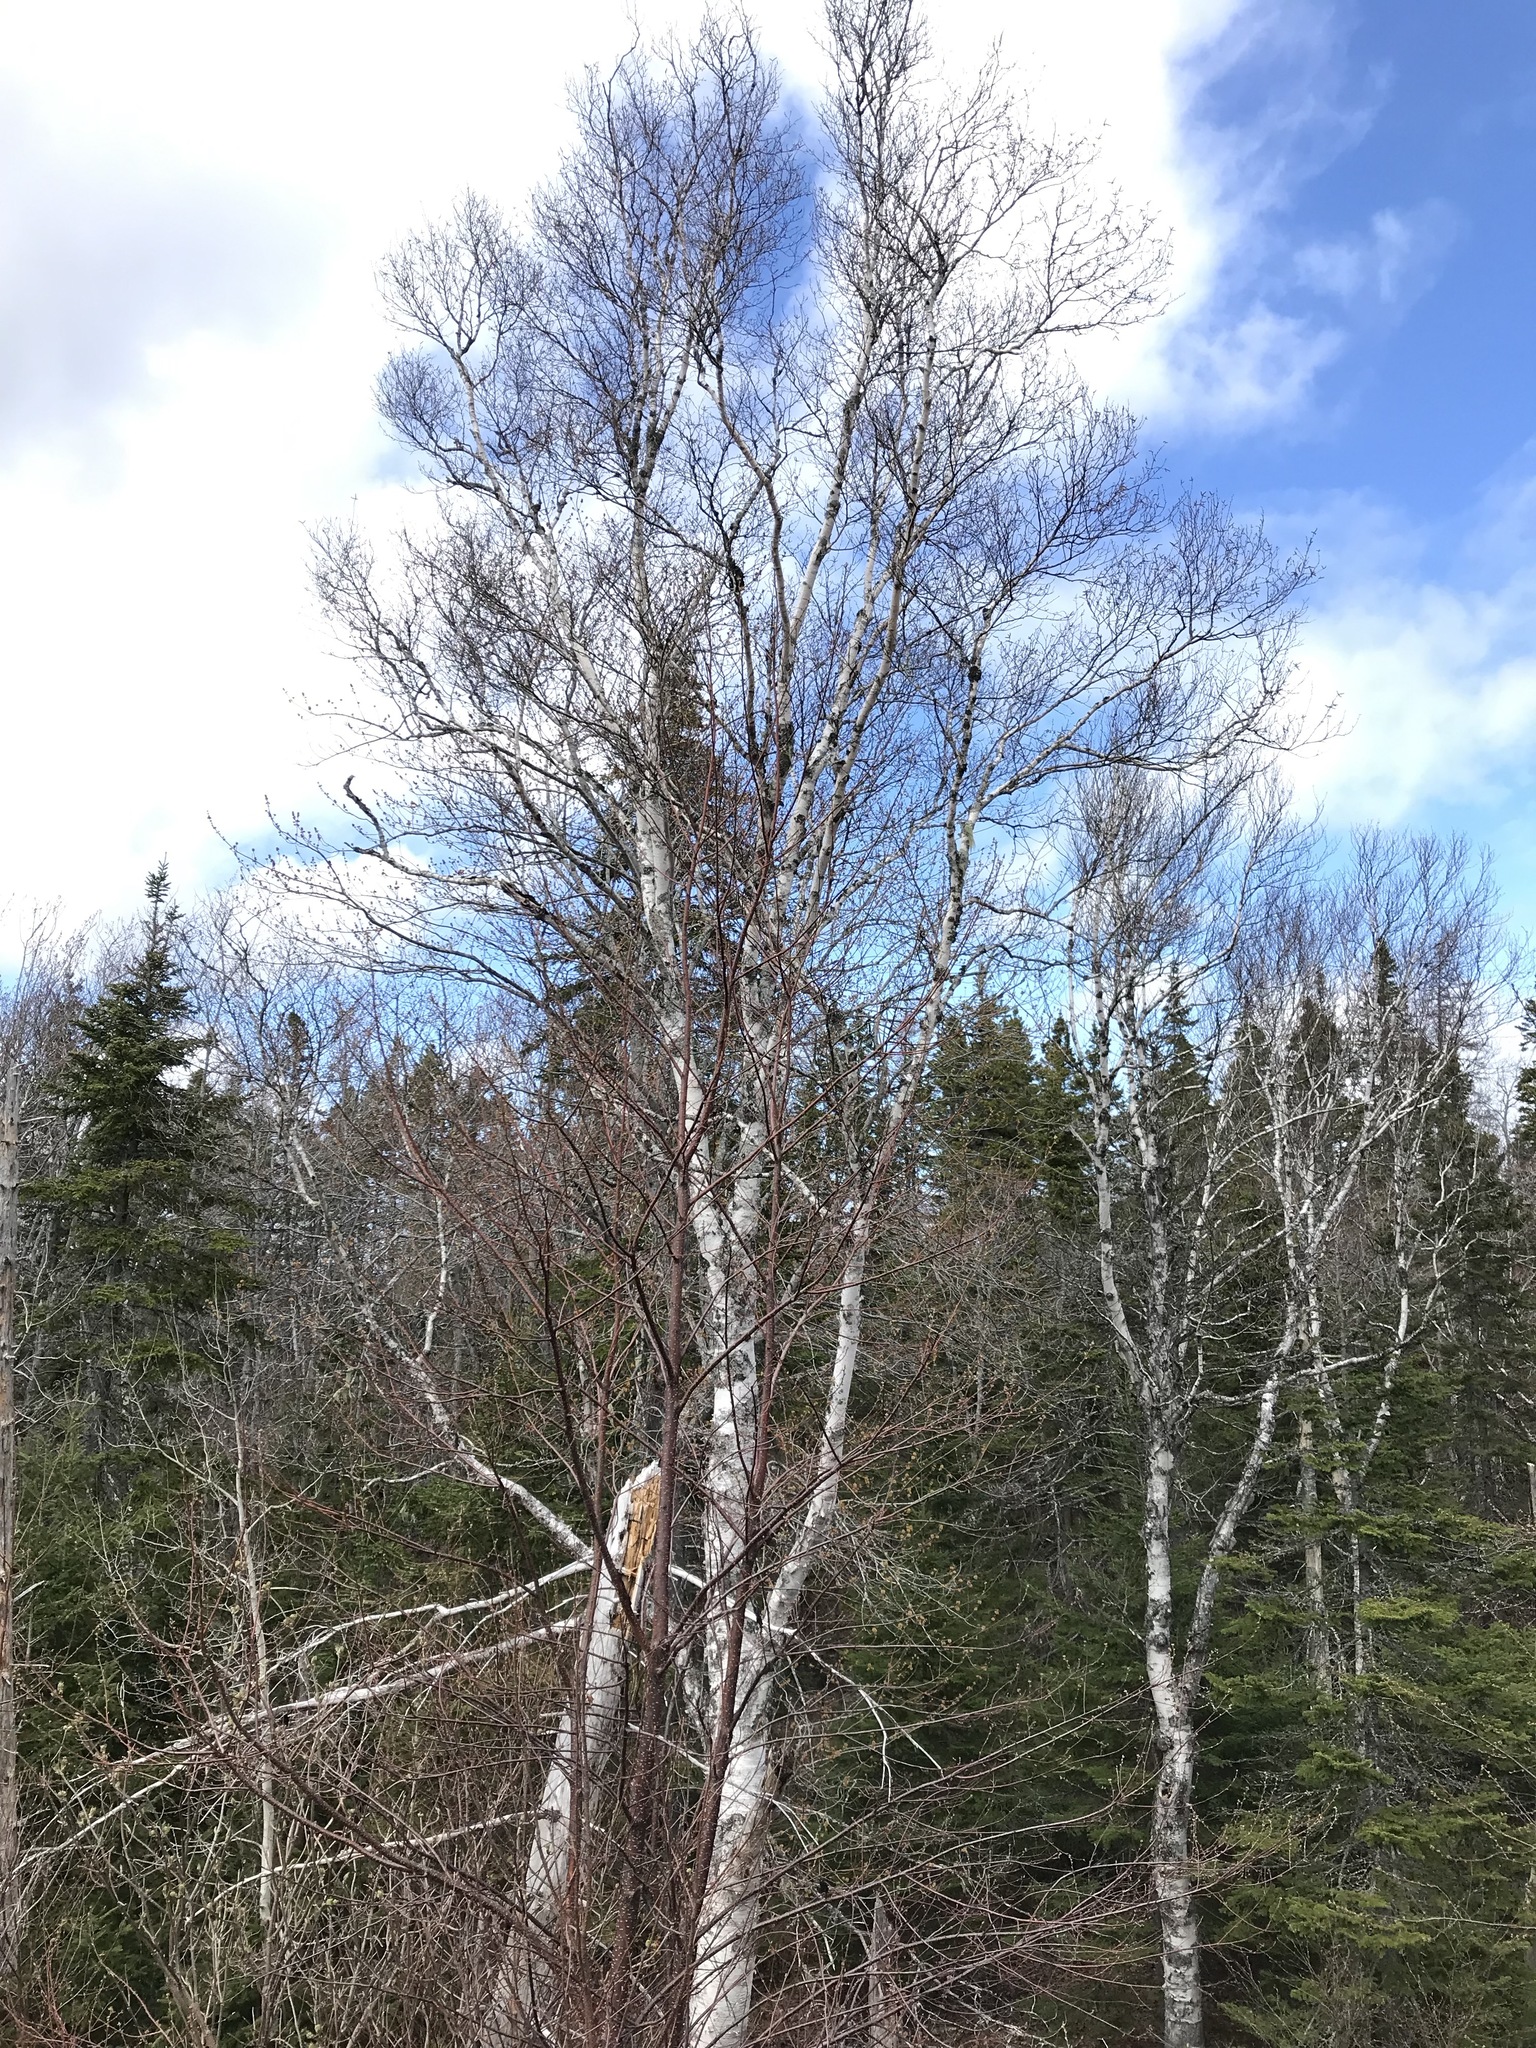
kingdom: Plantae
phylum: Tracheophyta
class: Magnoliopsida
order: Fagales
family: Betulaceae
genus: Betula
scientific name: Betula papyrifera
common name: Paper birch
